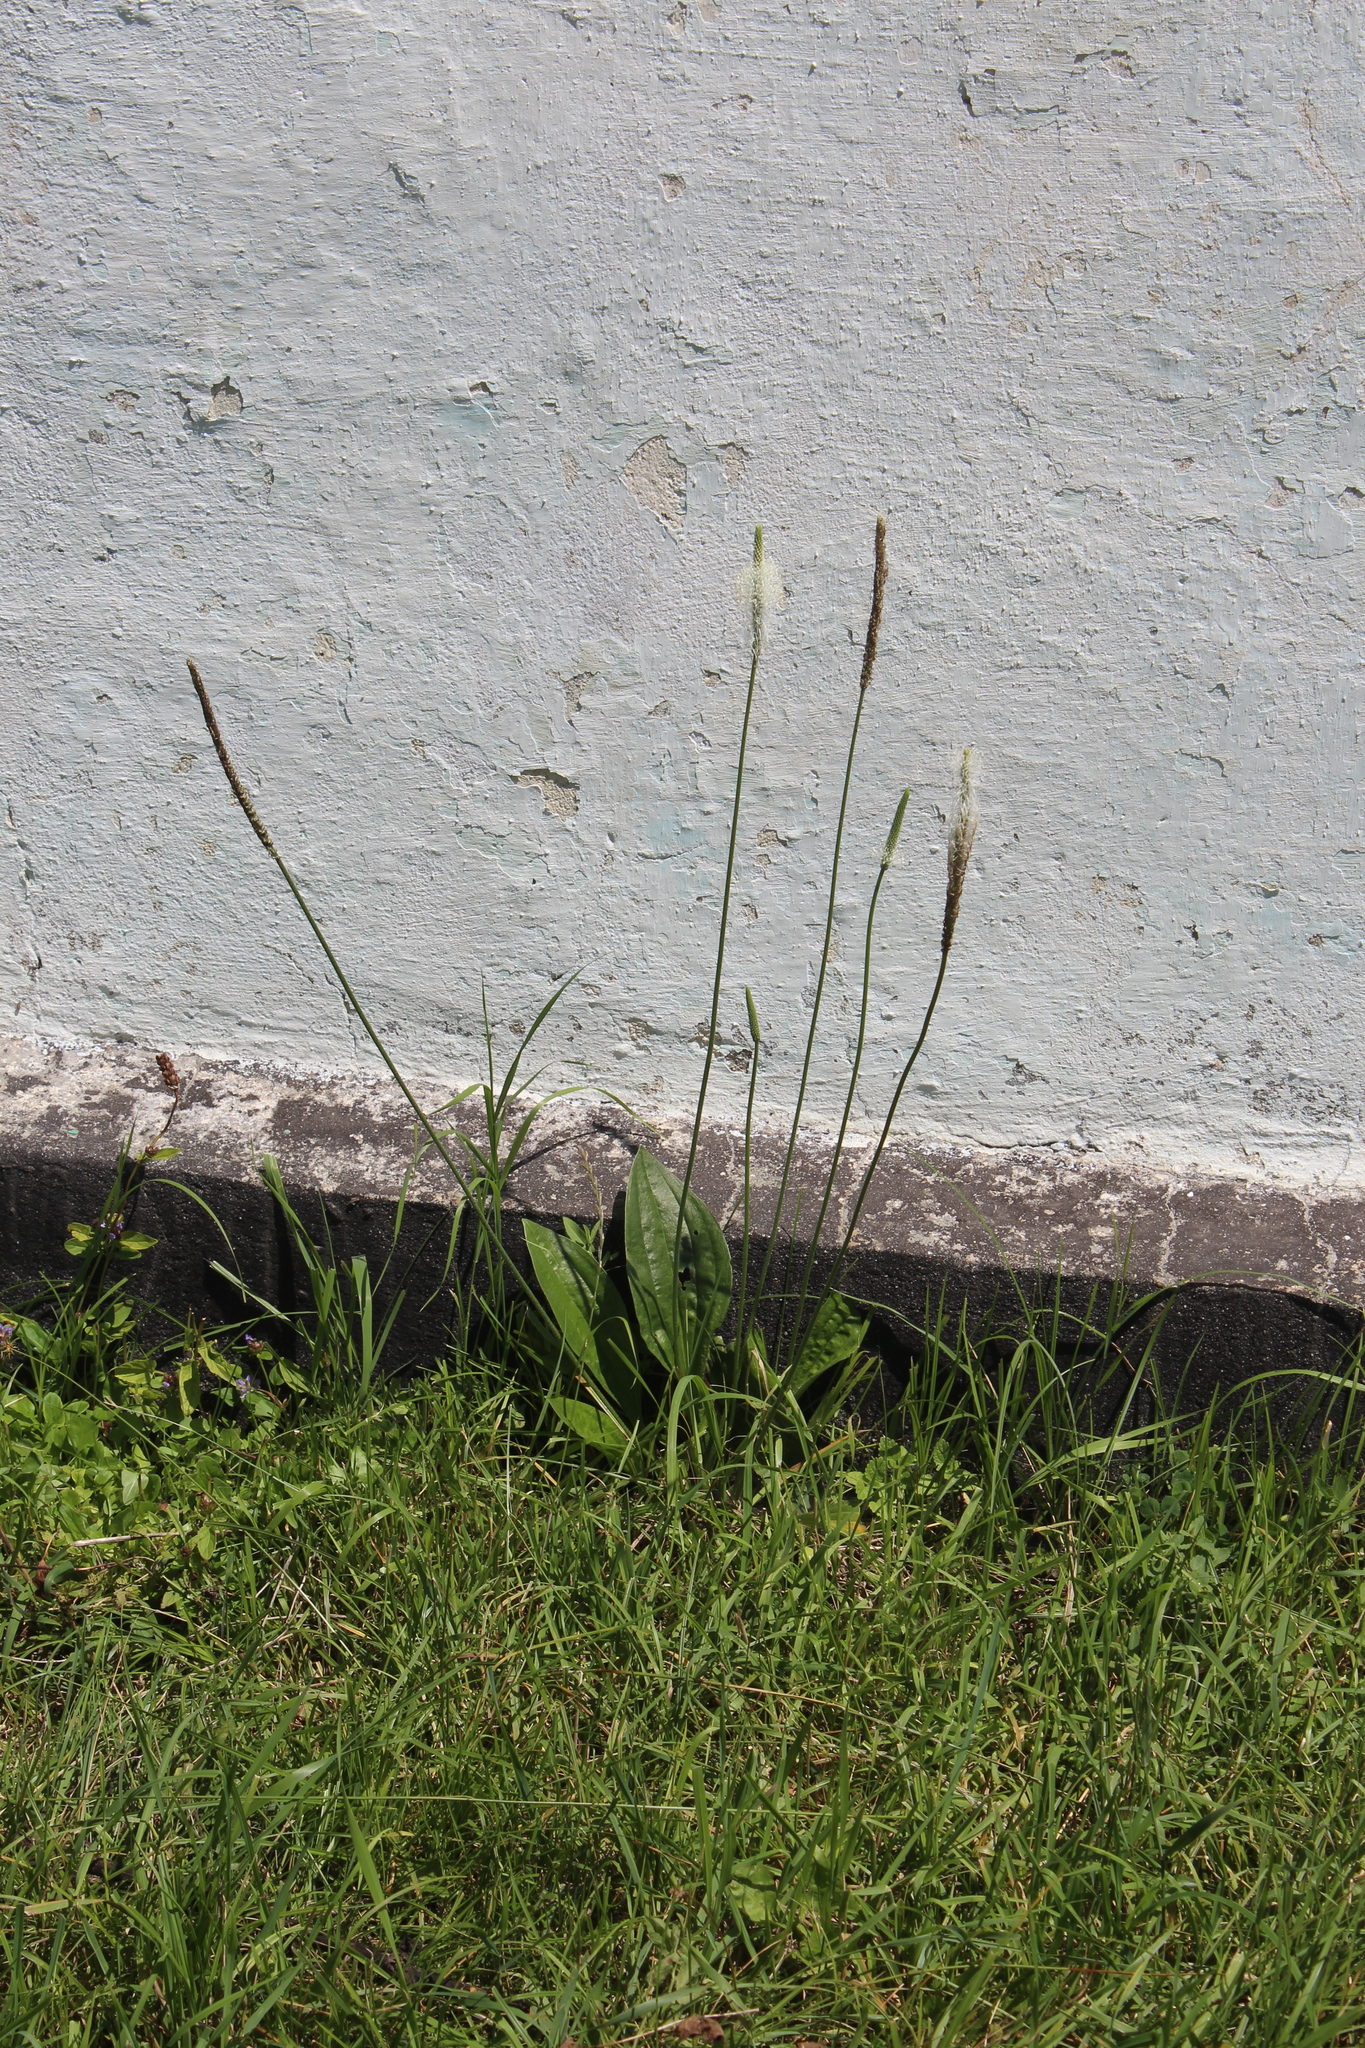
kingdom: Plantae
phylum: Tracheophyta
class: Magnoliopsida
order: Lamiales
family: Plantaginaceae
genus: Plantago
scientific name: Plantago urvillei
